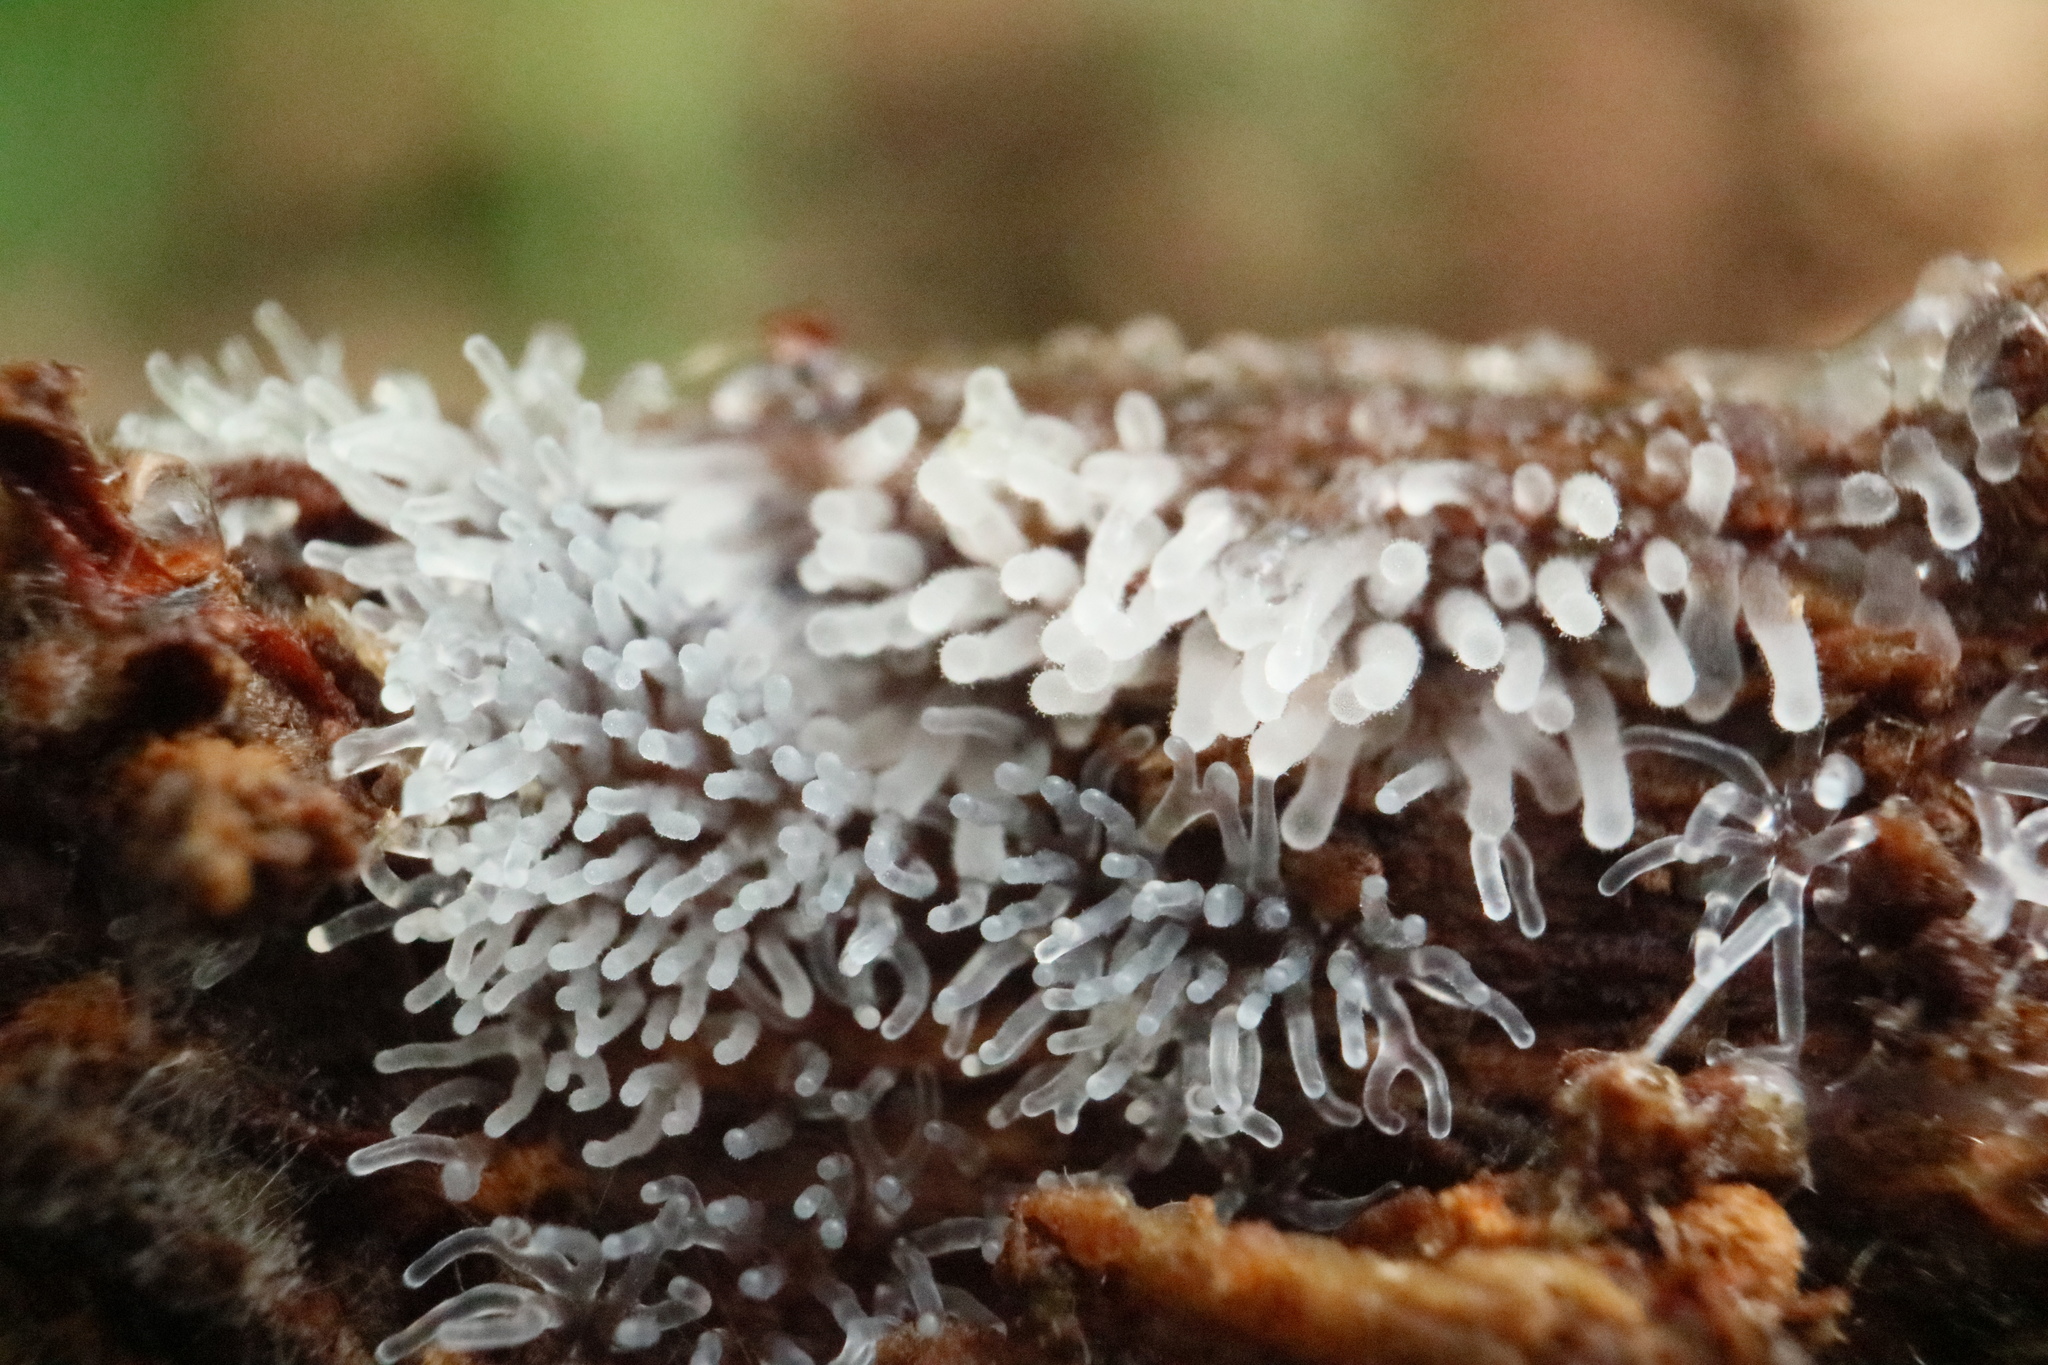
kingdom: Protozoa
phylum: Mycetozoa
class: Protosteliomycetes
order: Ceratiomyxales
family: Ceratiomyxaceae
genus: Ceratiomyxa
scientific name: Ceratiomyxa fruticulosa
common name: Honeycomb coral slime mold
